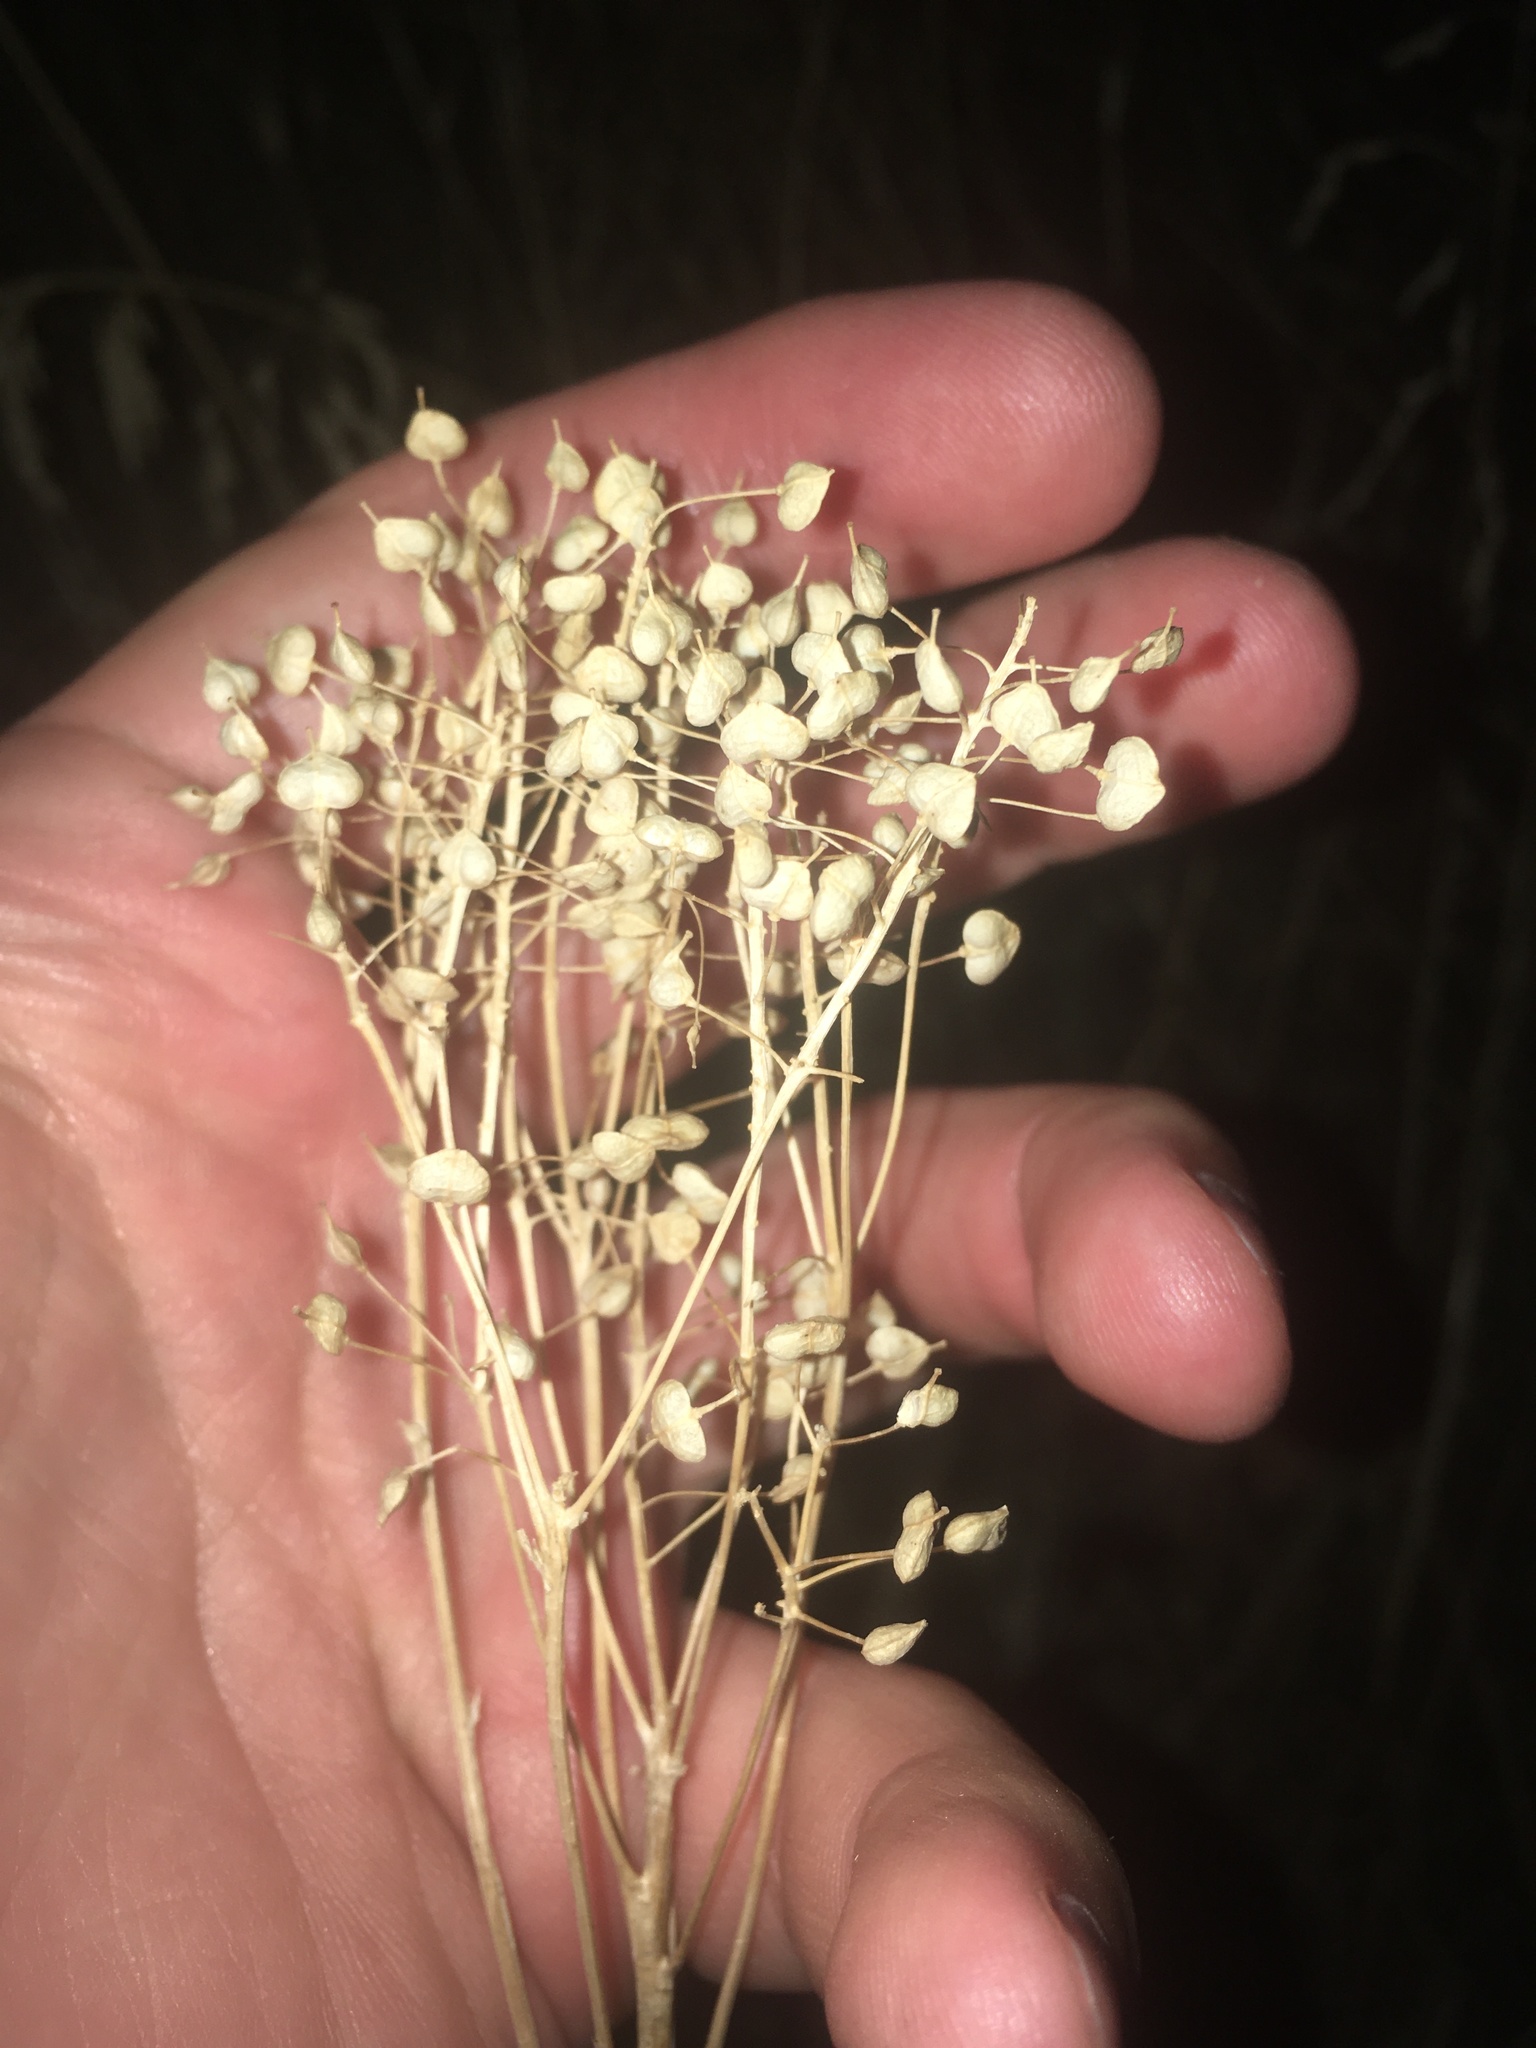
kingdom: Plantae
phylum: Tracheophyta
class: Magnoliopsida
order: Brassicales
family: Brassicaceae
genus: Lepidium
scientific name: Lepidium draba
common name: Hoary cress
